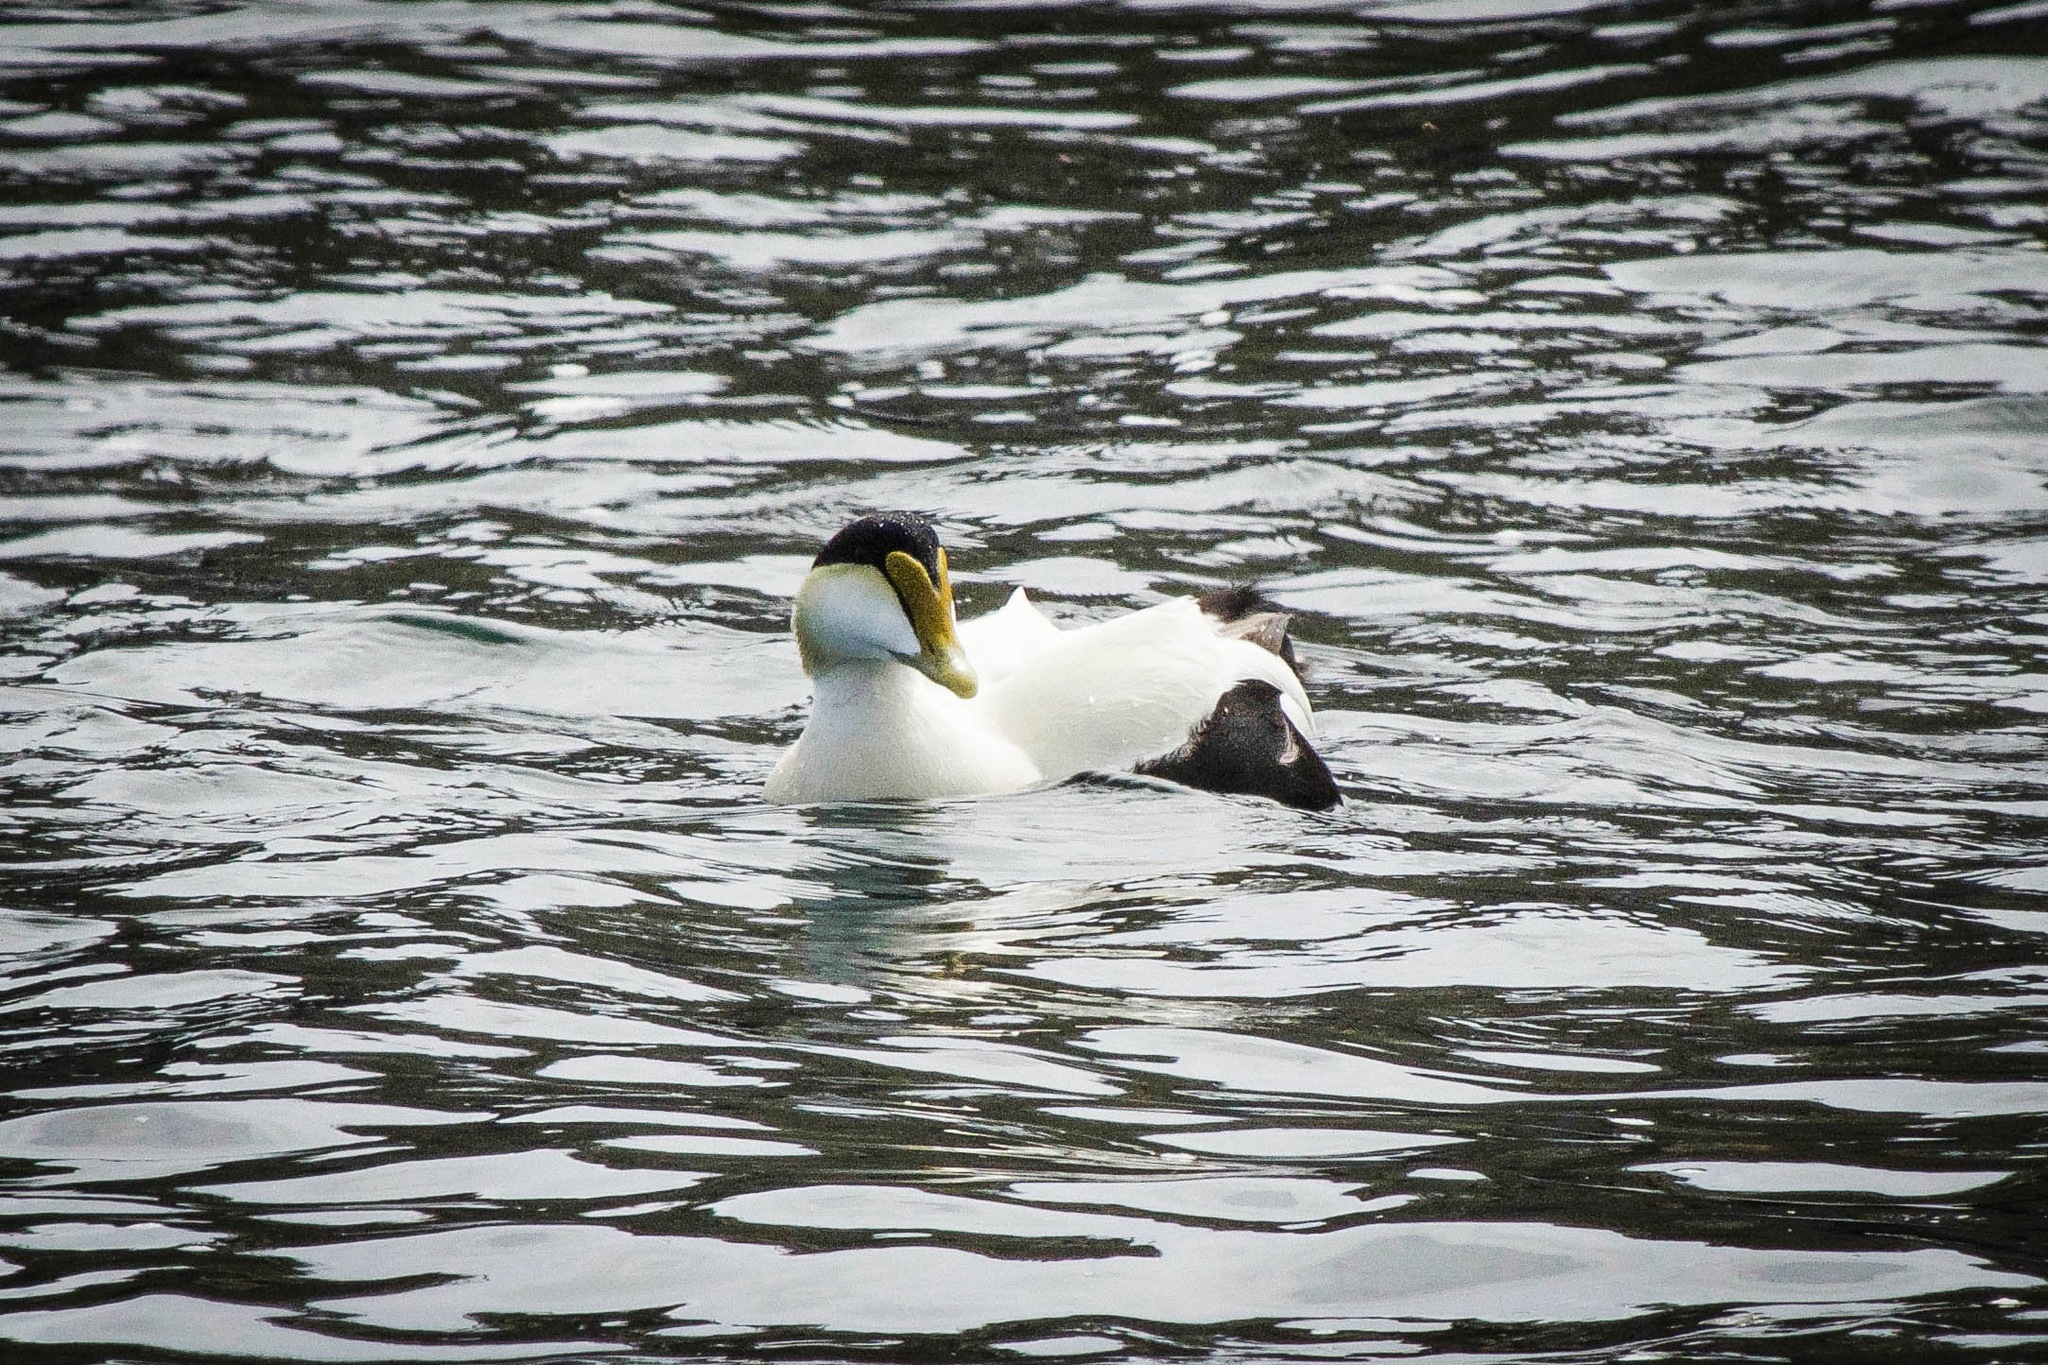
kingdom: Animalia
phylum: Chordata
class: Aves
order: Anseriformes
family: Anatidae
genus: Somateria
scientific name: Somateria mollissima
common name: Common eider
